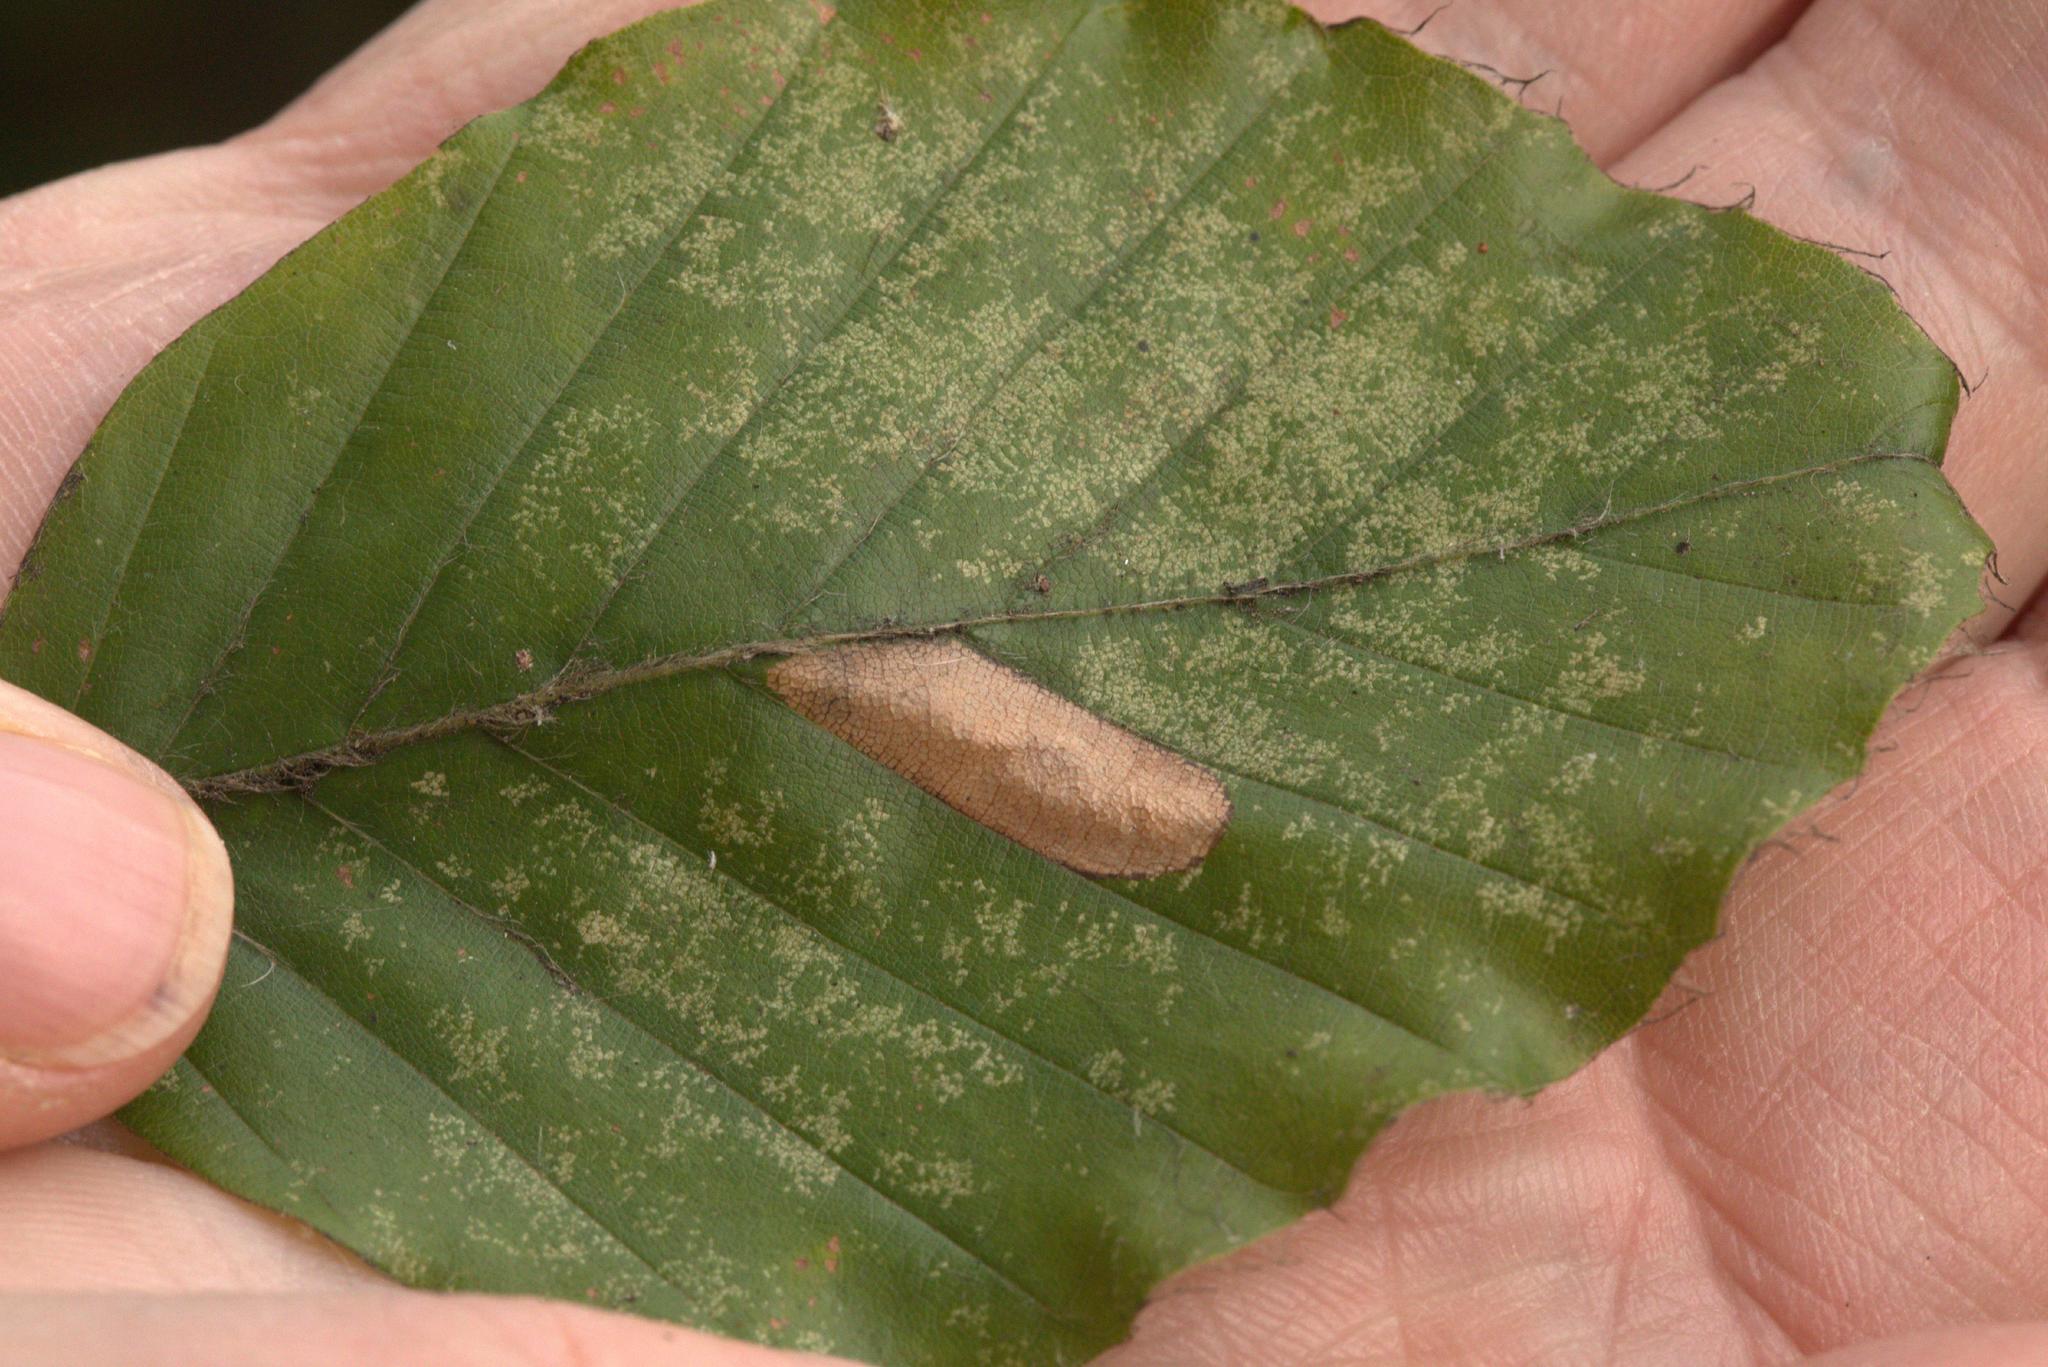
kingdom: Animalia
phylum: Arthropoda
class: Insecta
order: Lepidoptera
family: Gracillariidae
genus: Phyllonorycter
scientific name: Phyllonorycter maestingella
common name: Beech midget
